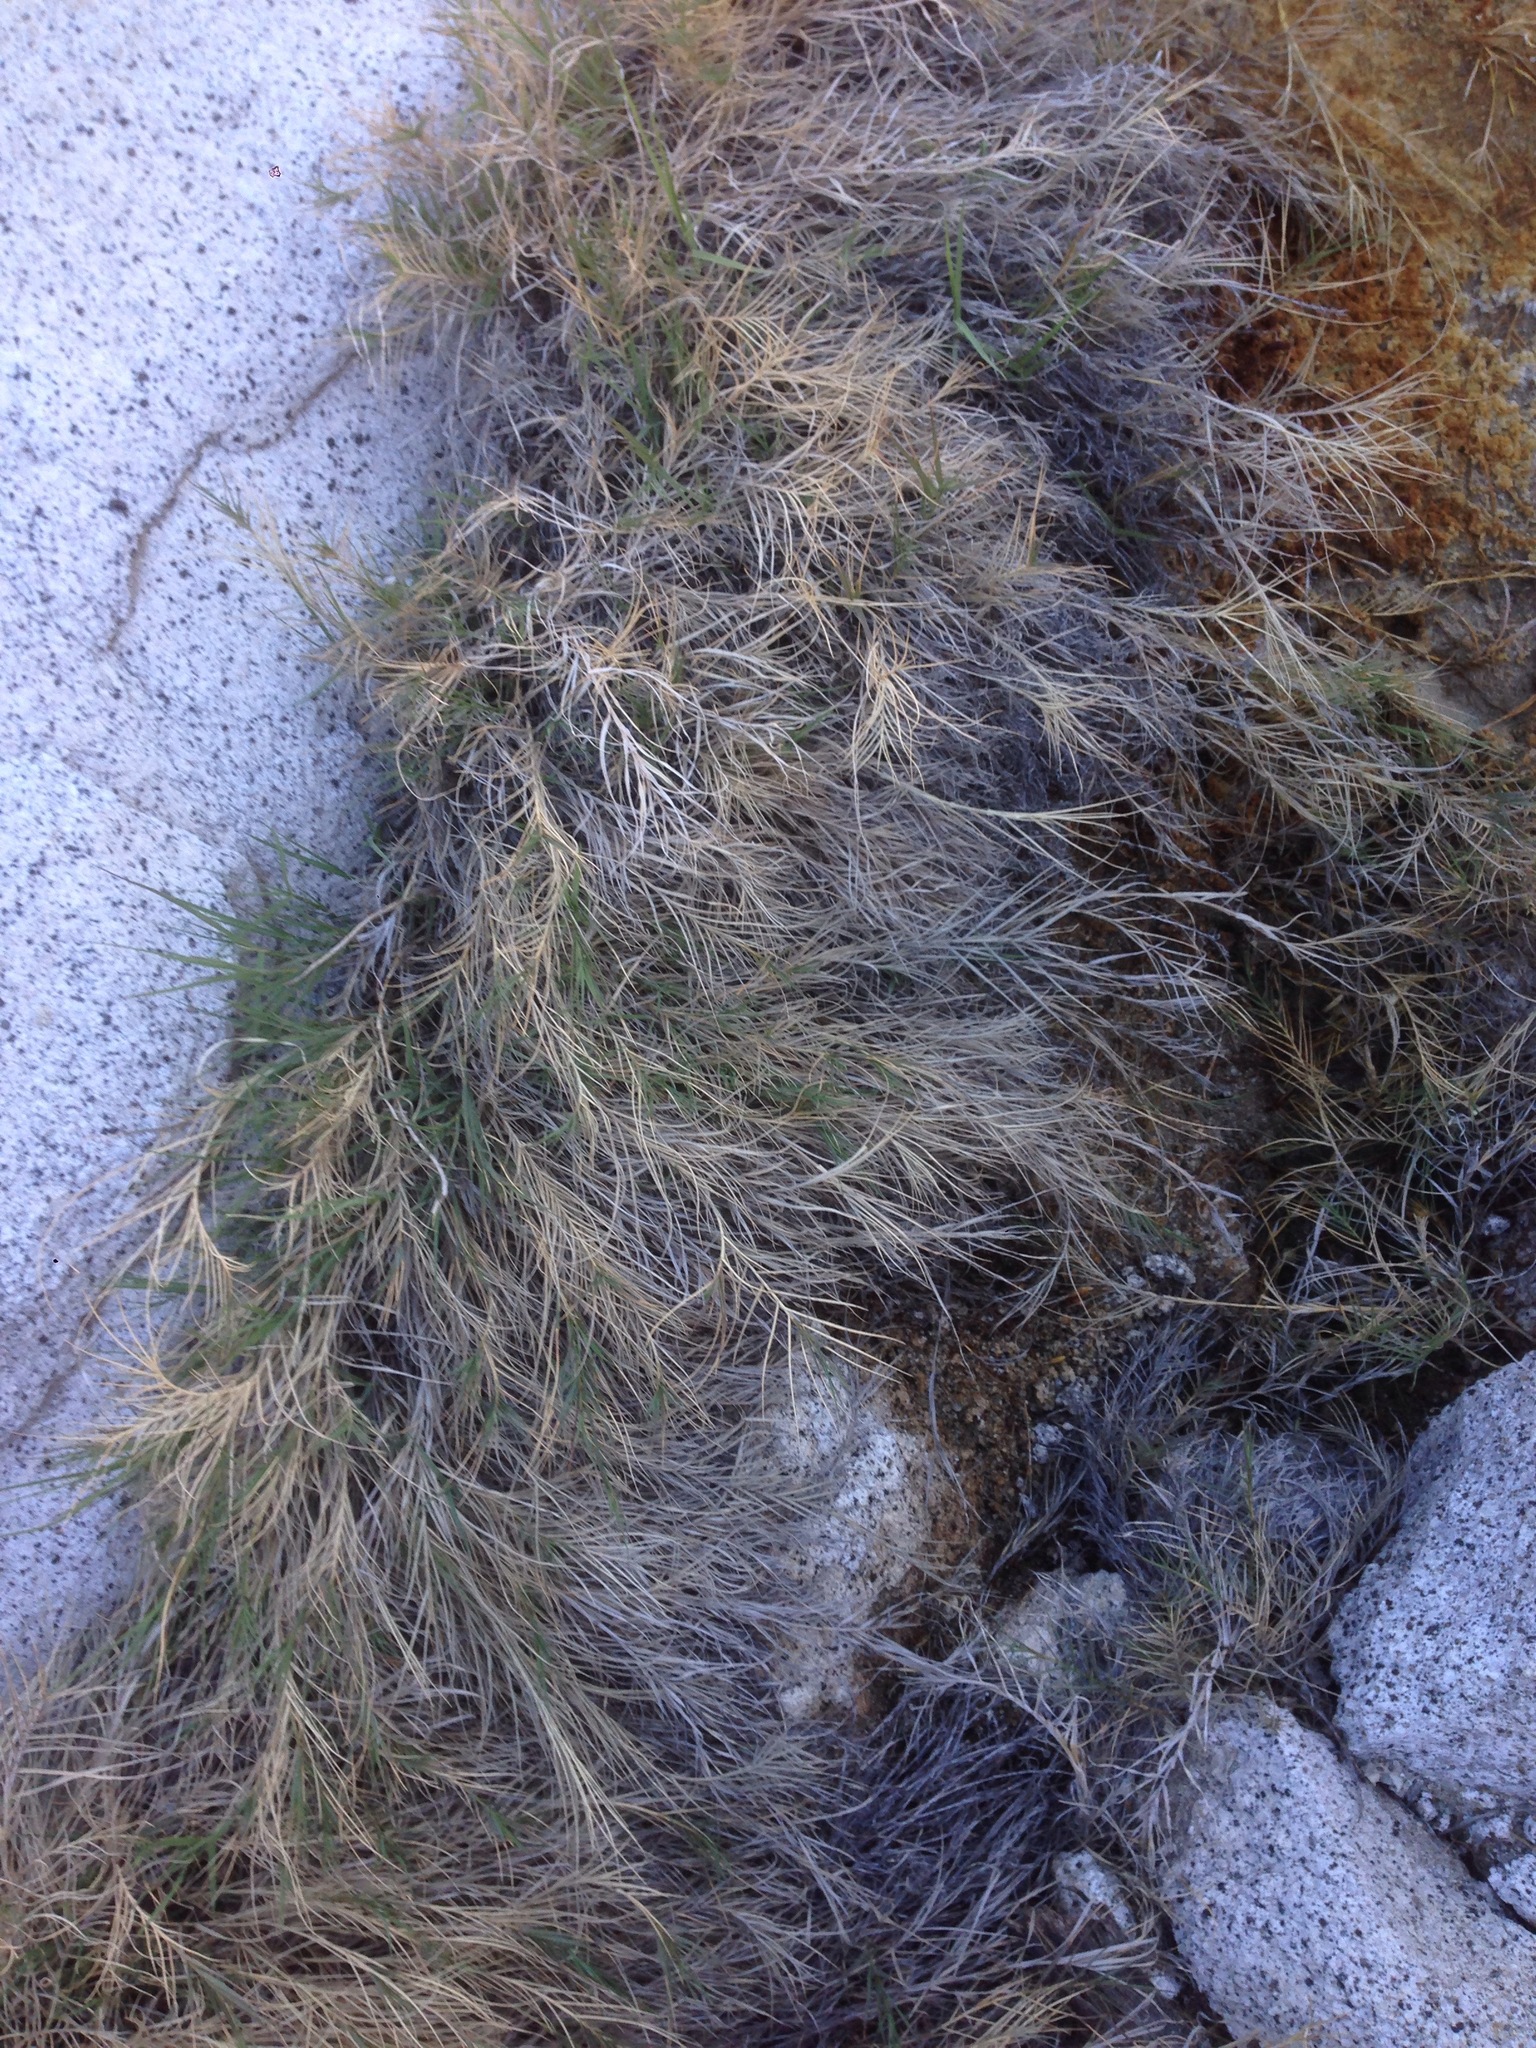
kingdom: Plantae
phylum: Tracheophyta
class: Liliopsida
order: Poales
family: Poaceae
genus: Distichlis
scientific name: Distichlis spicata
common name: Saltgrass
